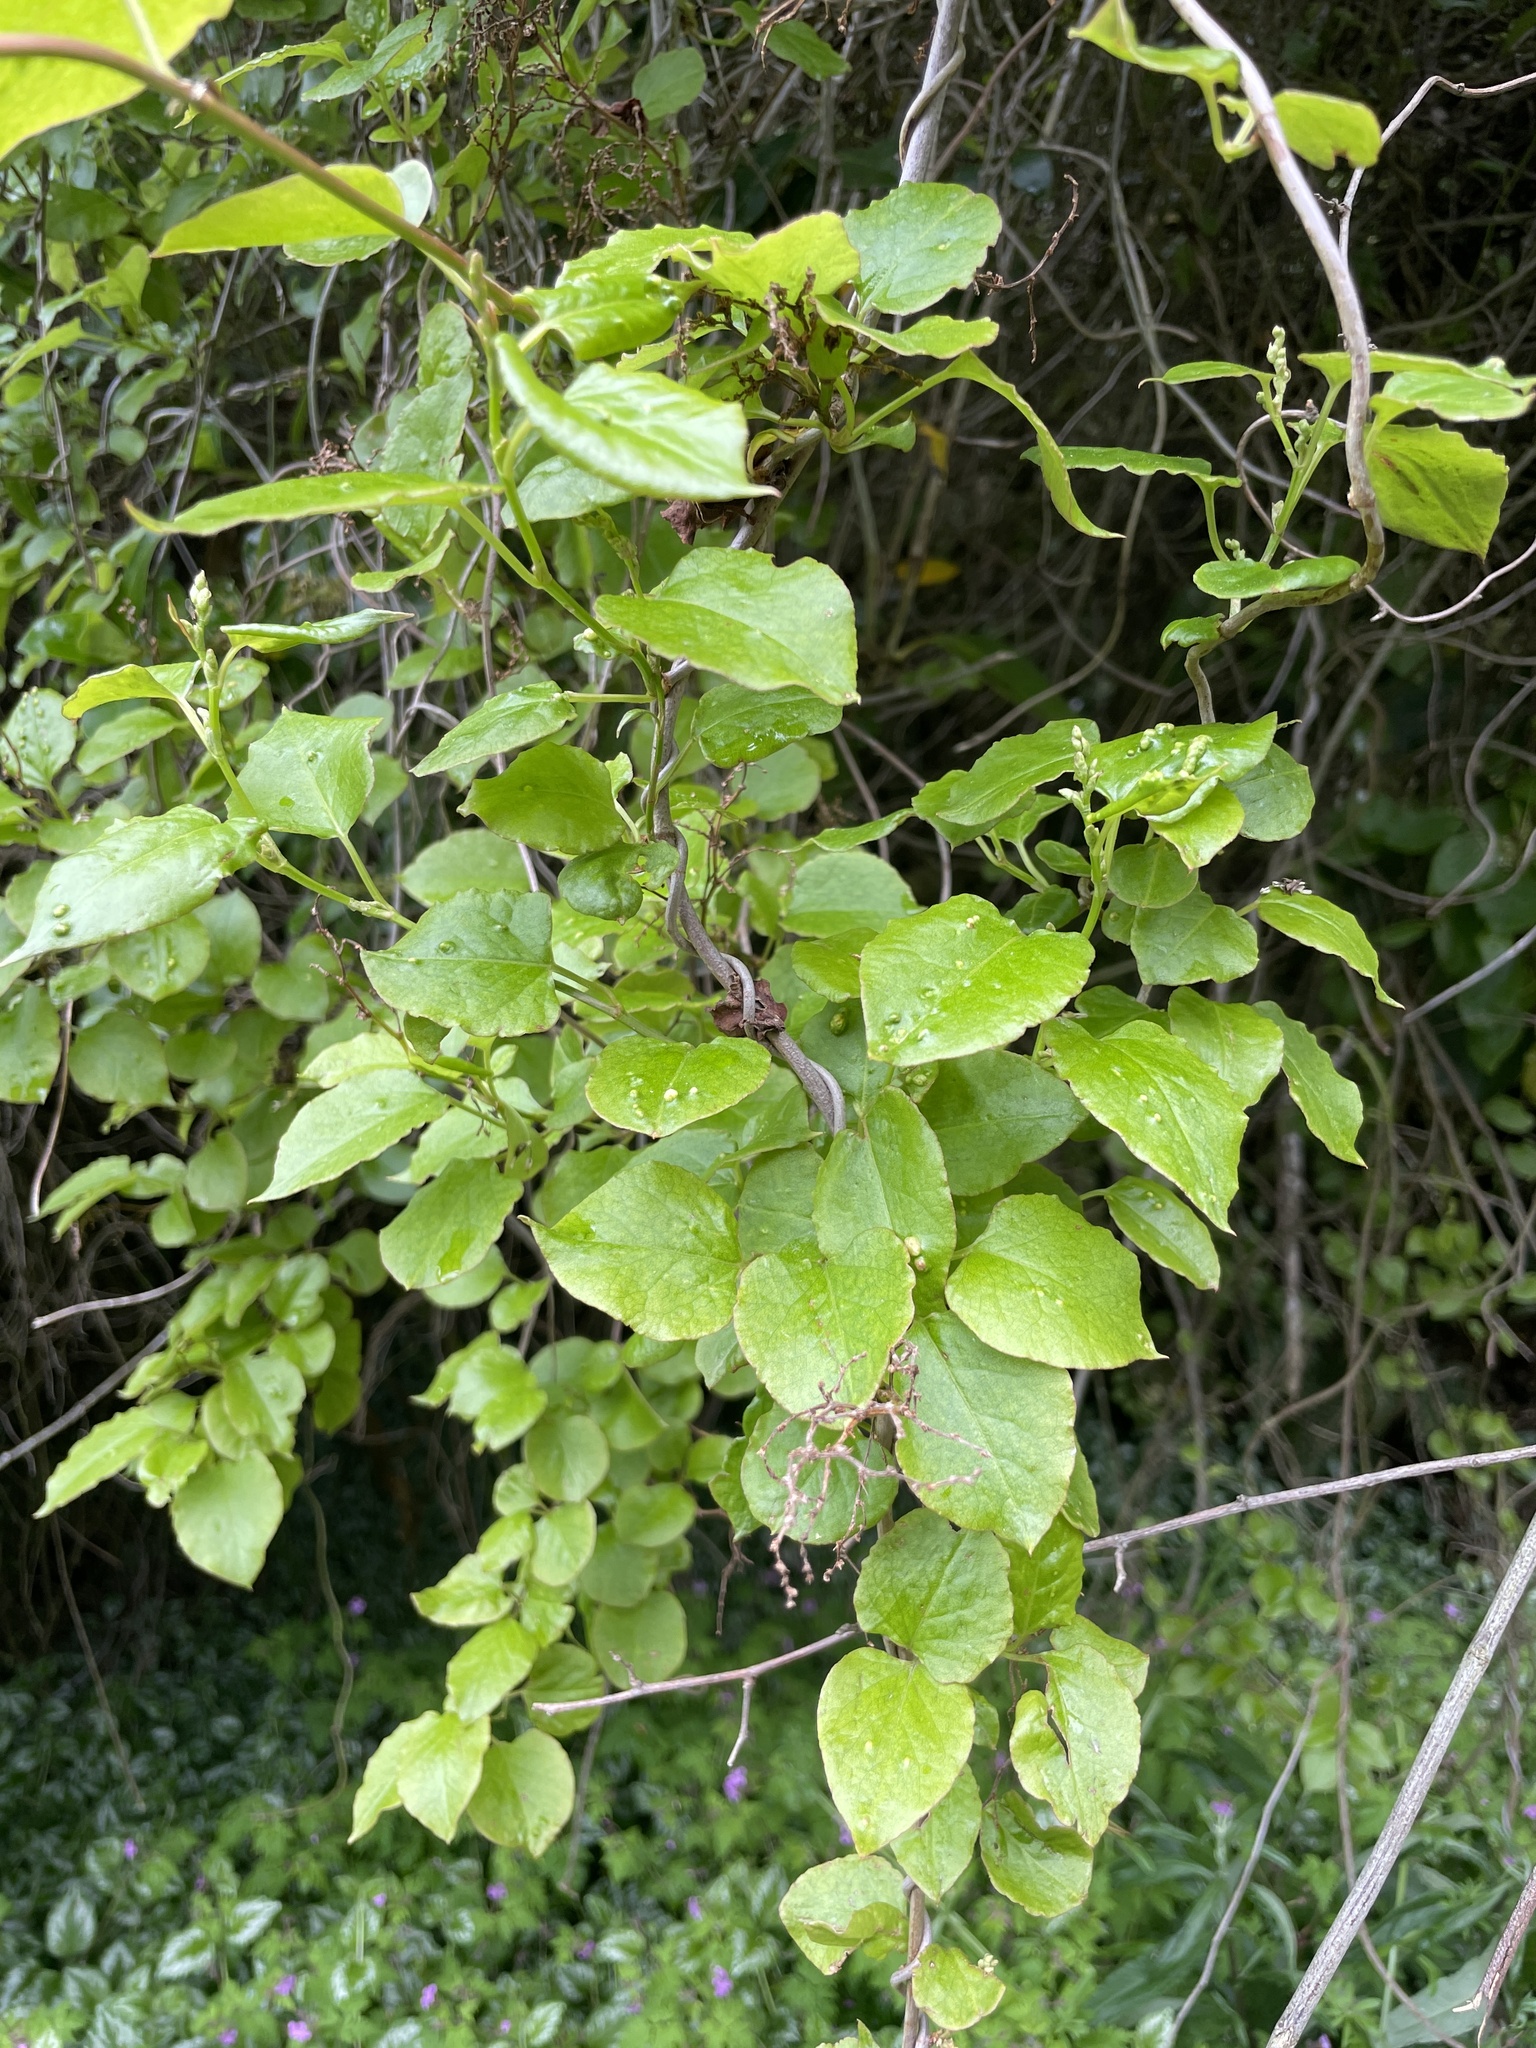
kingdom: Plantae
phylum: Tracheophyta
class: Magnoliopsida
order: Caryophyllales
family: Polygonaceae
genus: Muehlenbeckia
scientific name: Muehlenbeckia australis
